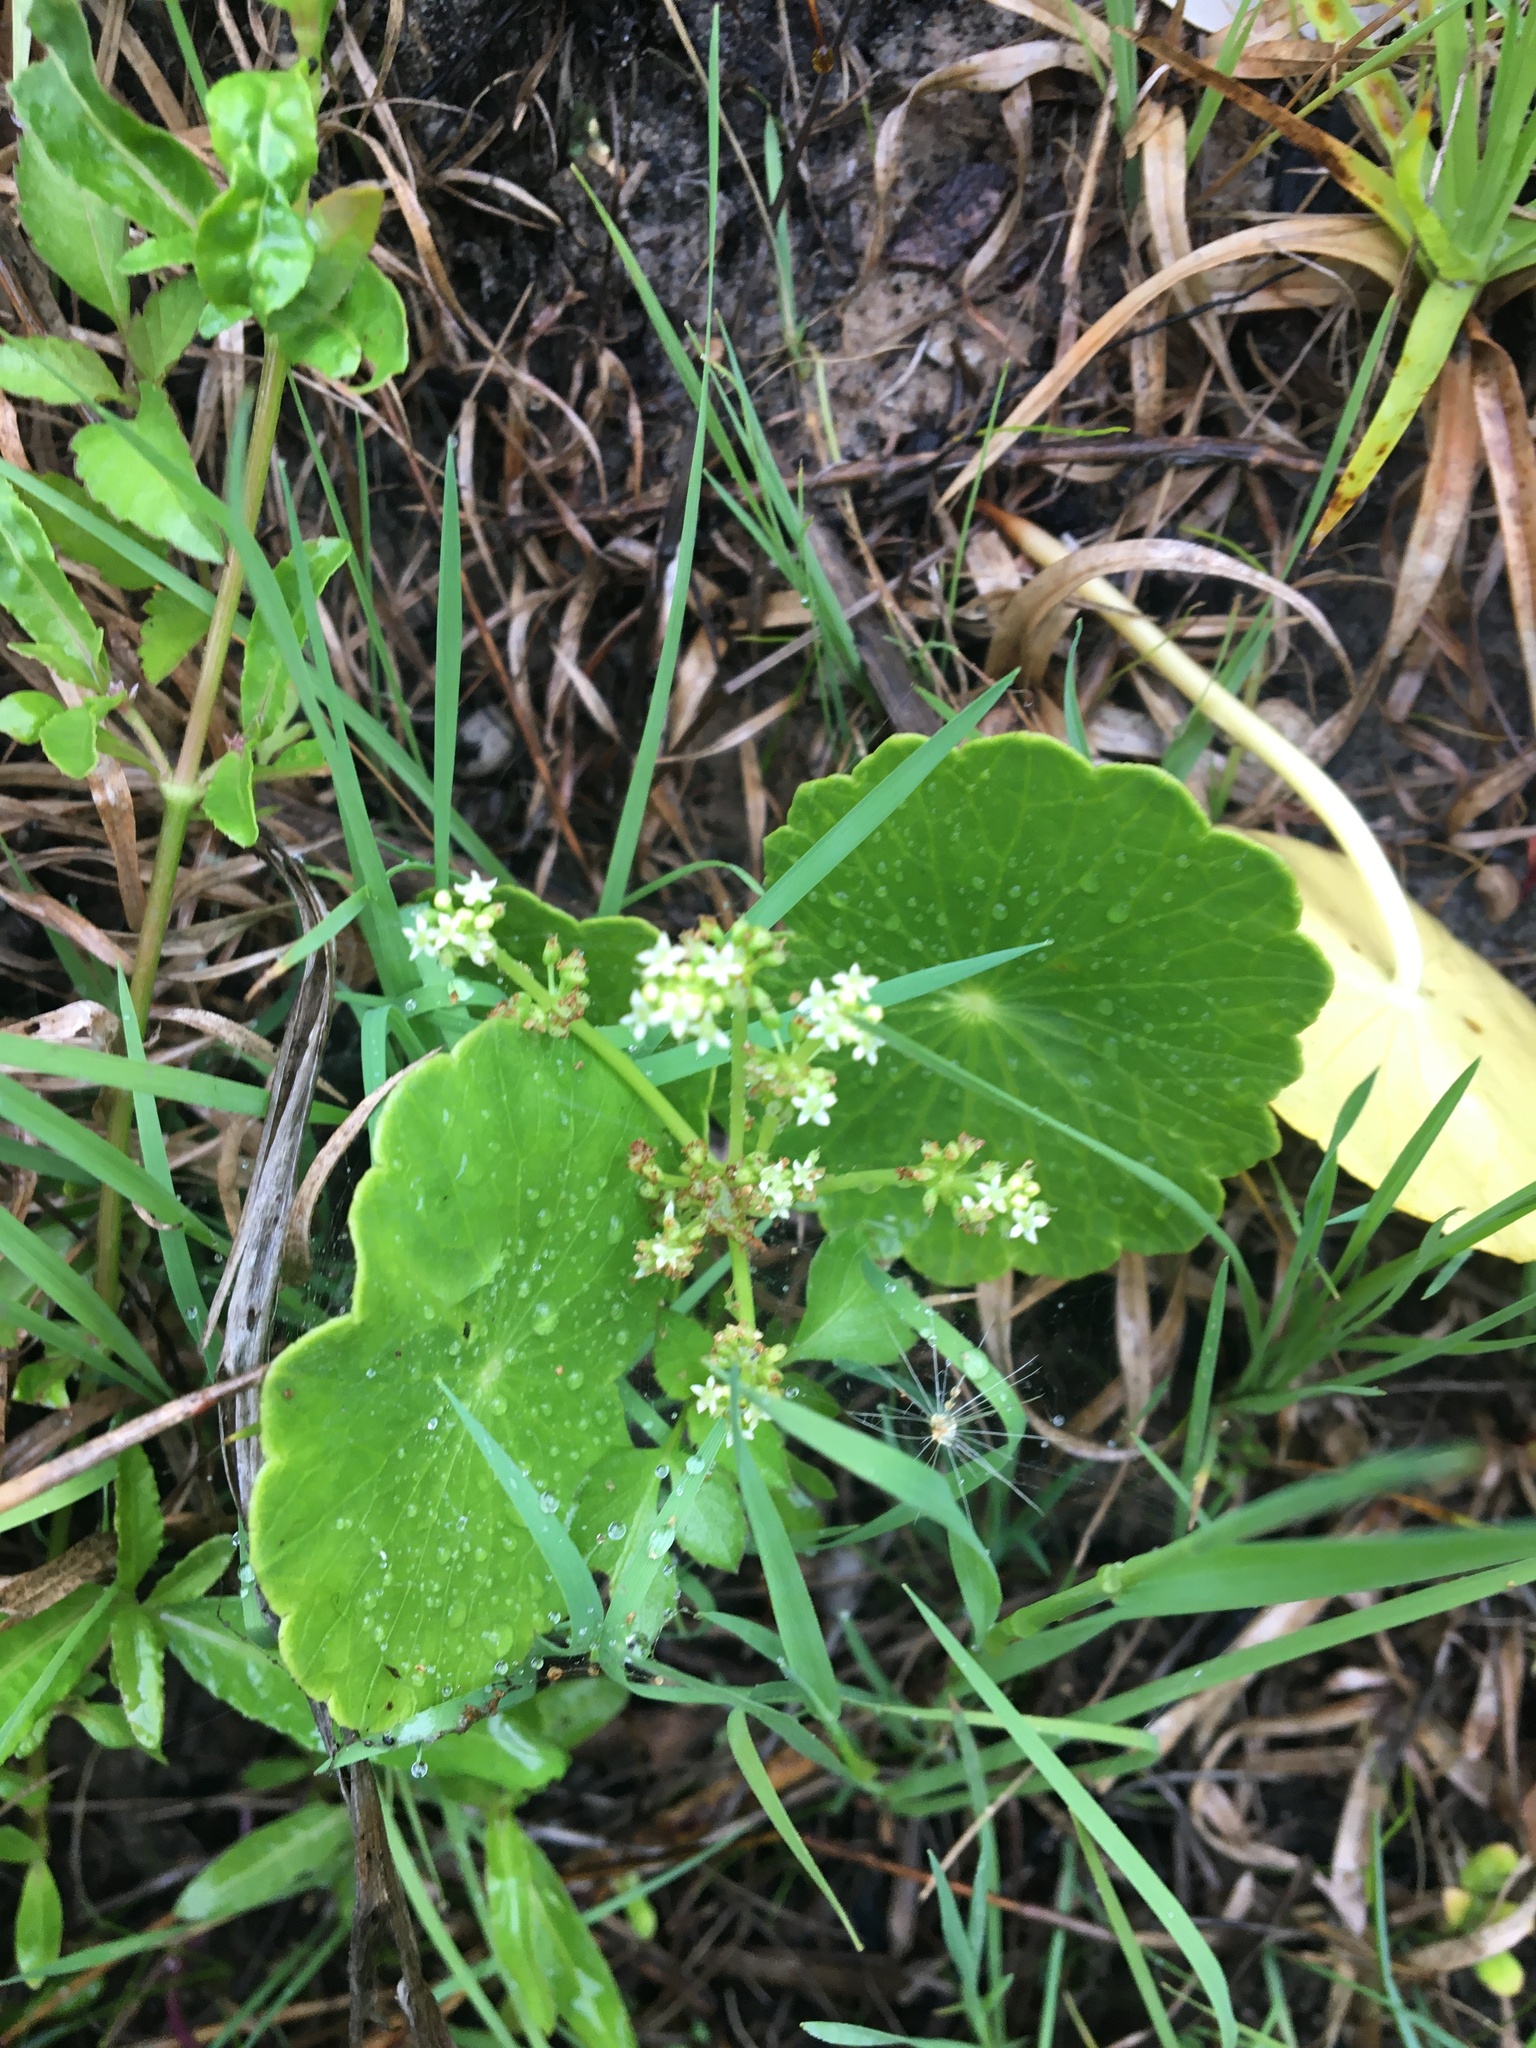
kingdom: Plantae
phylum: Tracheophyta
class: Magnoliopsida
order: Apiales
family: Araliaceae
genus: Hydrocotyle
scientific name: Hydrocotyle bonariensis
